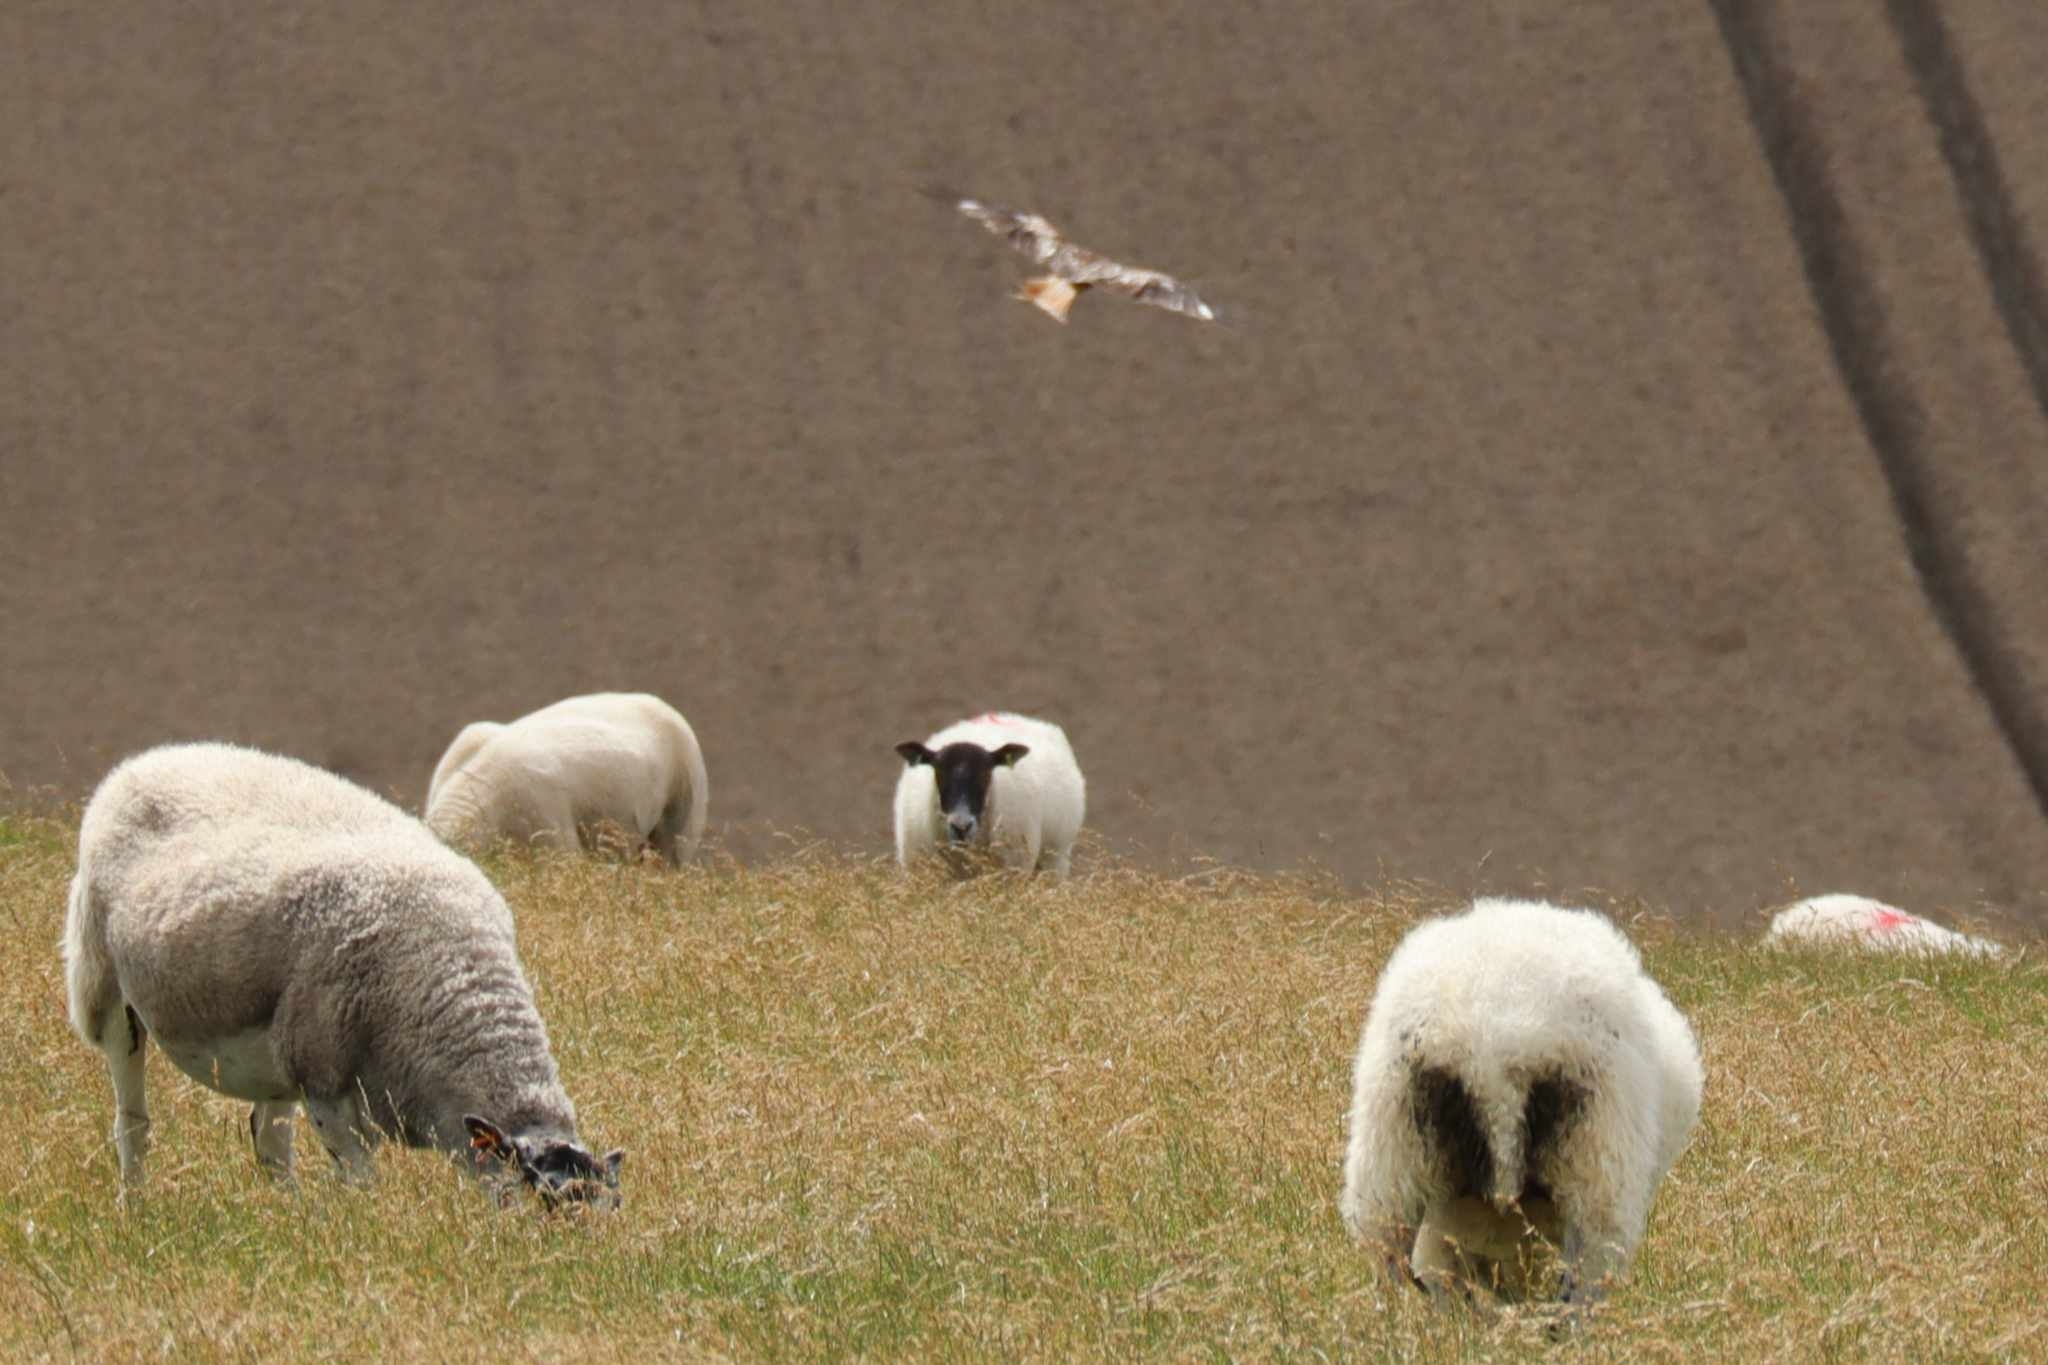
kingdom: Animalia
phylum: Chordata
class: Aves
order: Accipitriformes
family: Accipitridae
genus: Milvus
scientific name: Milvus milvus
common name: Red kite
